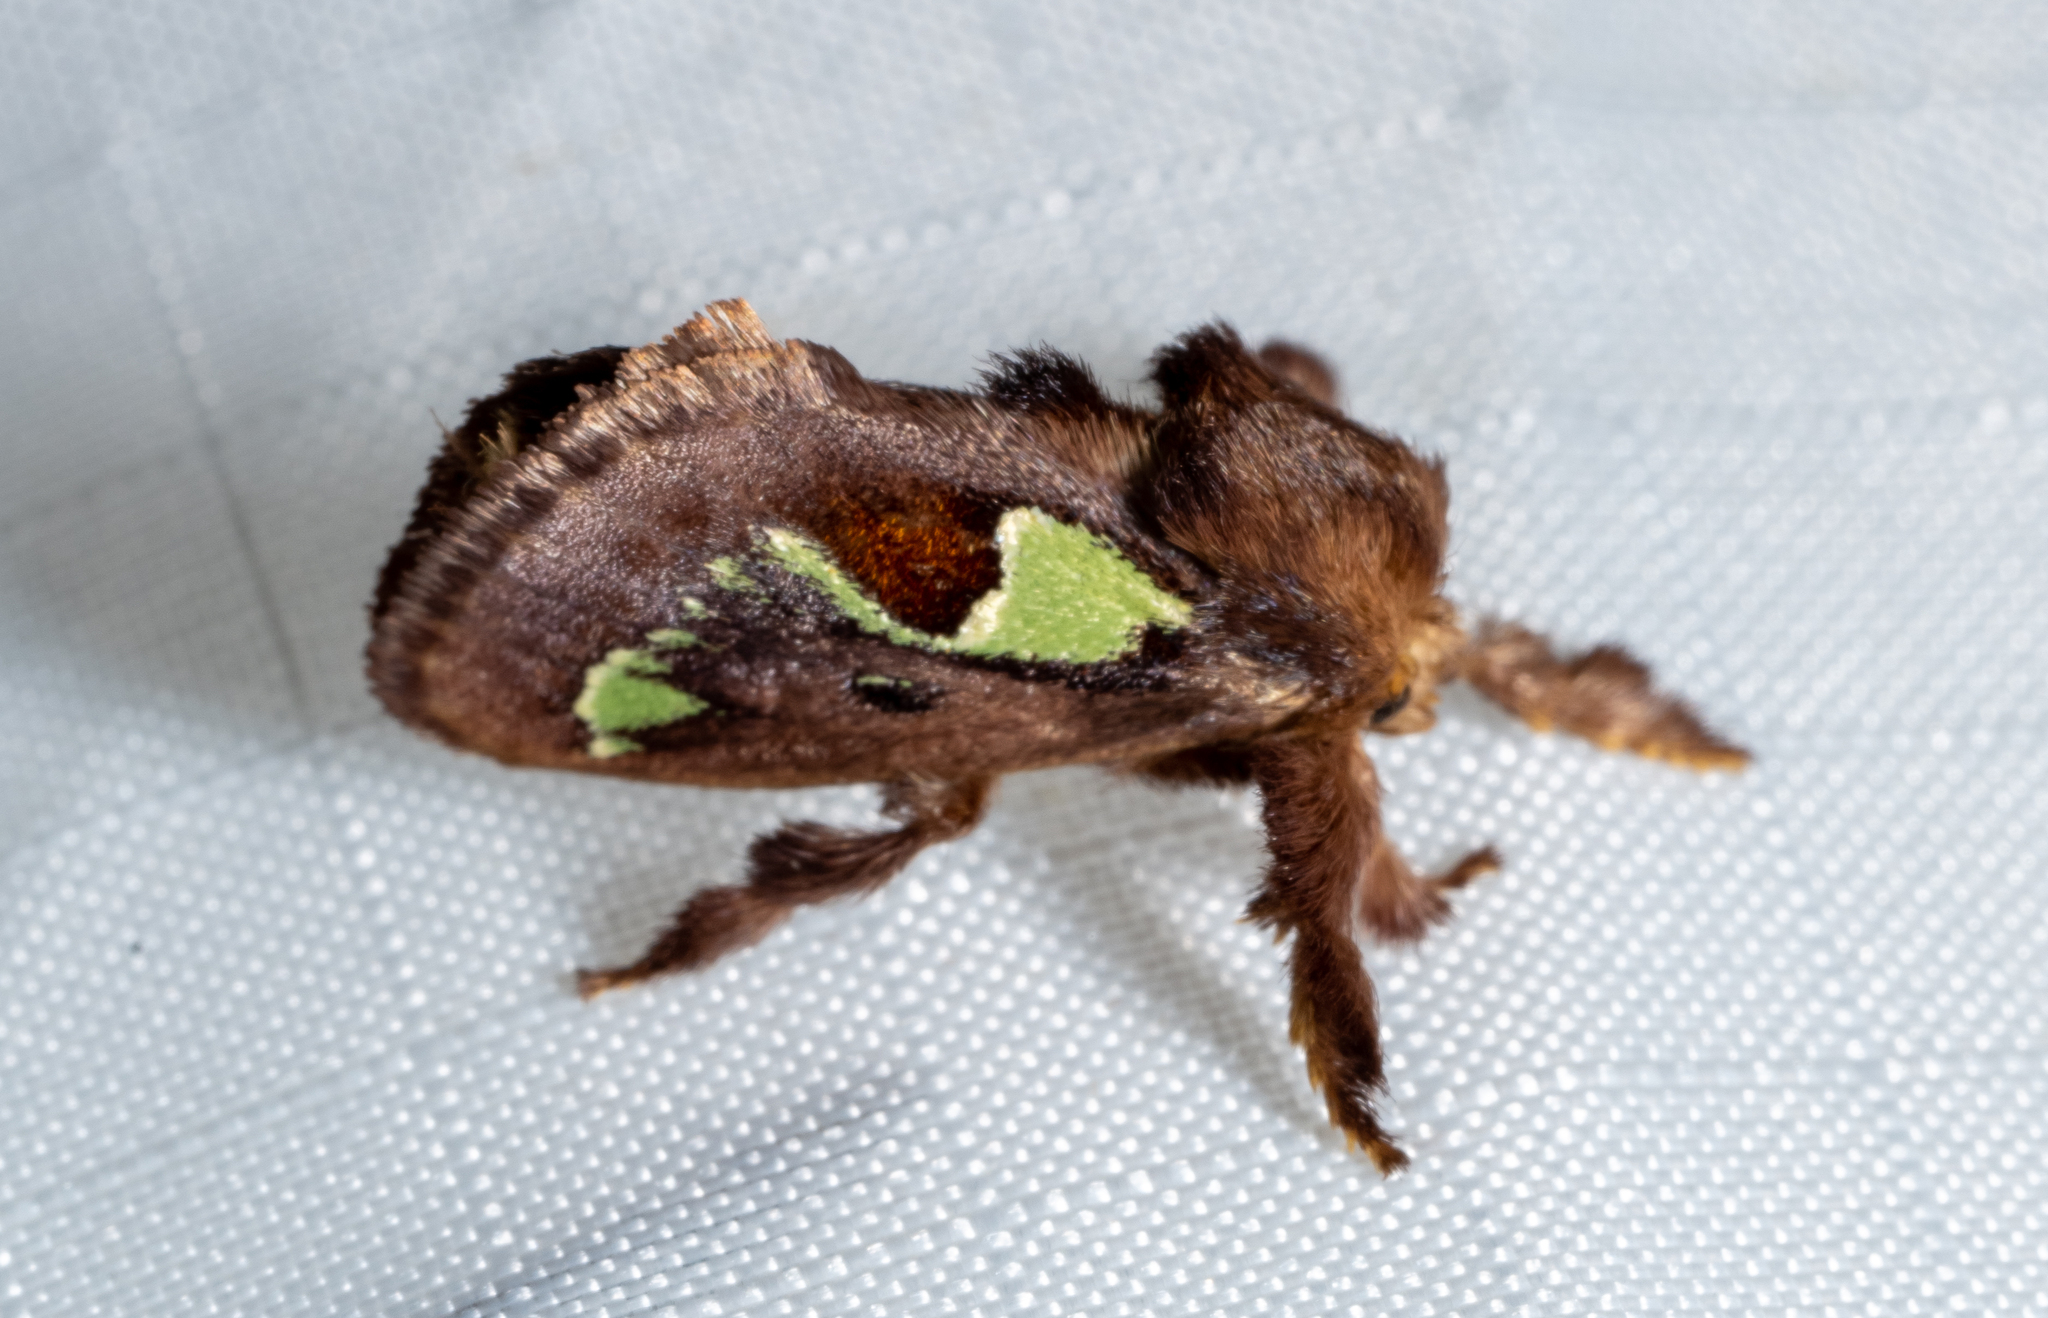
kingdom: Animalia
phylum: Arthropoda
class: Insecta
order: Lepidoptera
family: Limacodidae
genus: Euclea
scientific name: Euclea delphinii
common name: Spiny oak-slug moth
